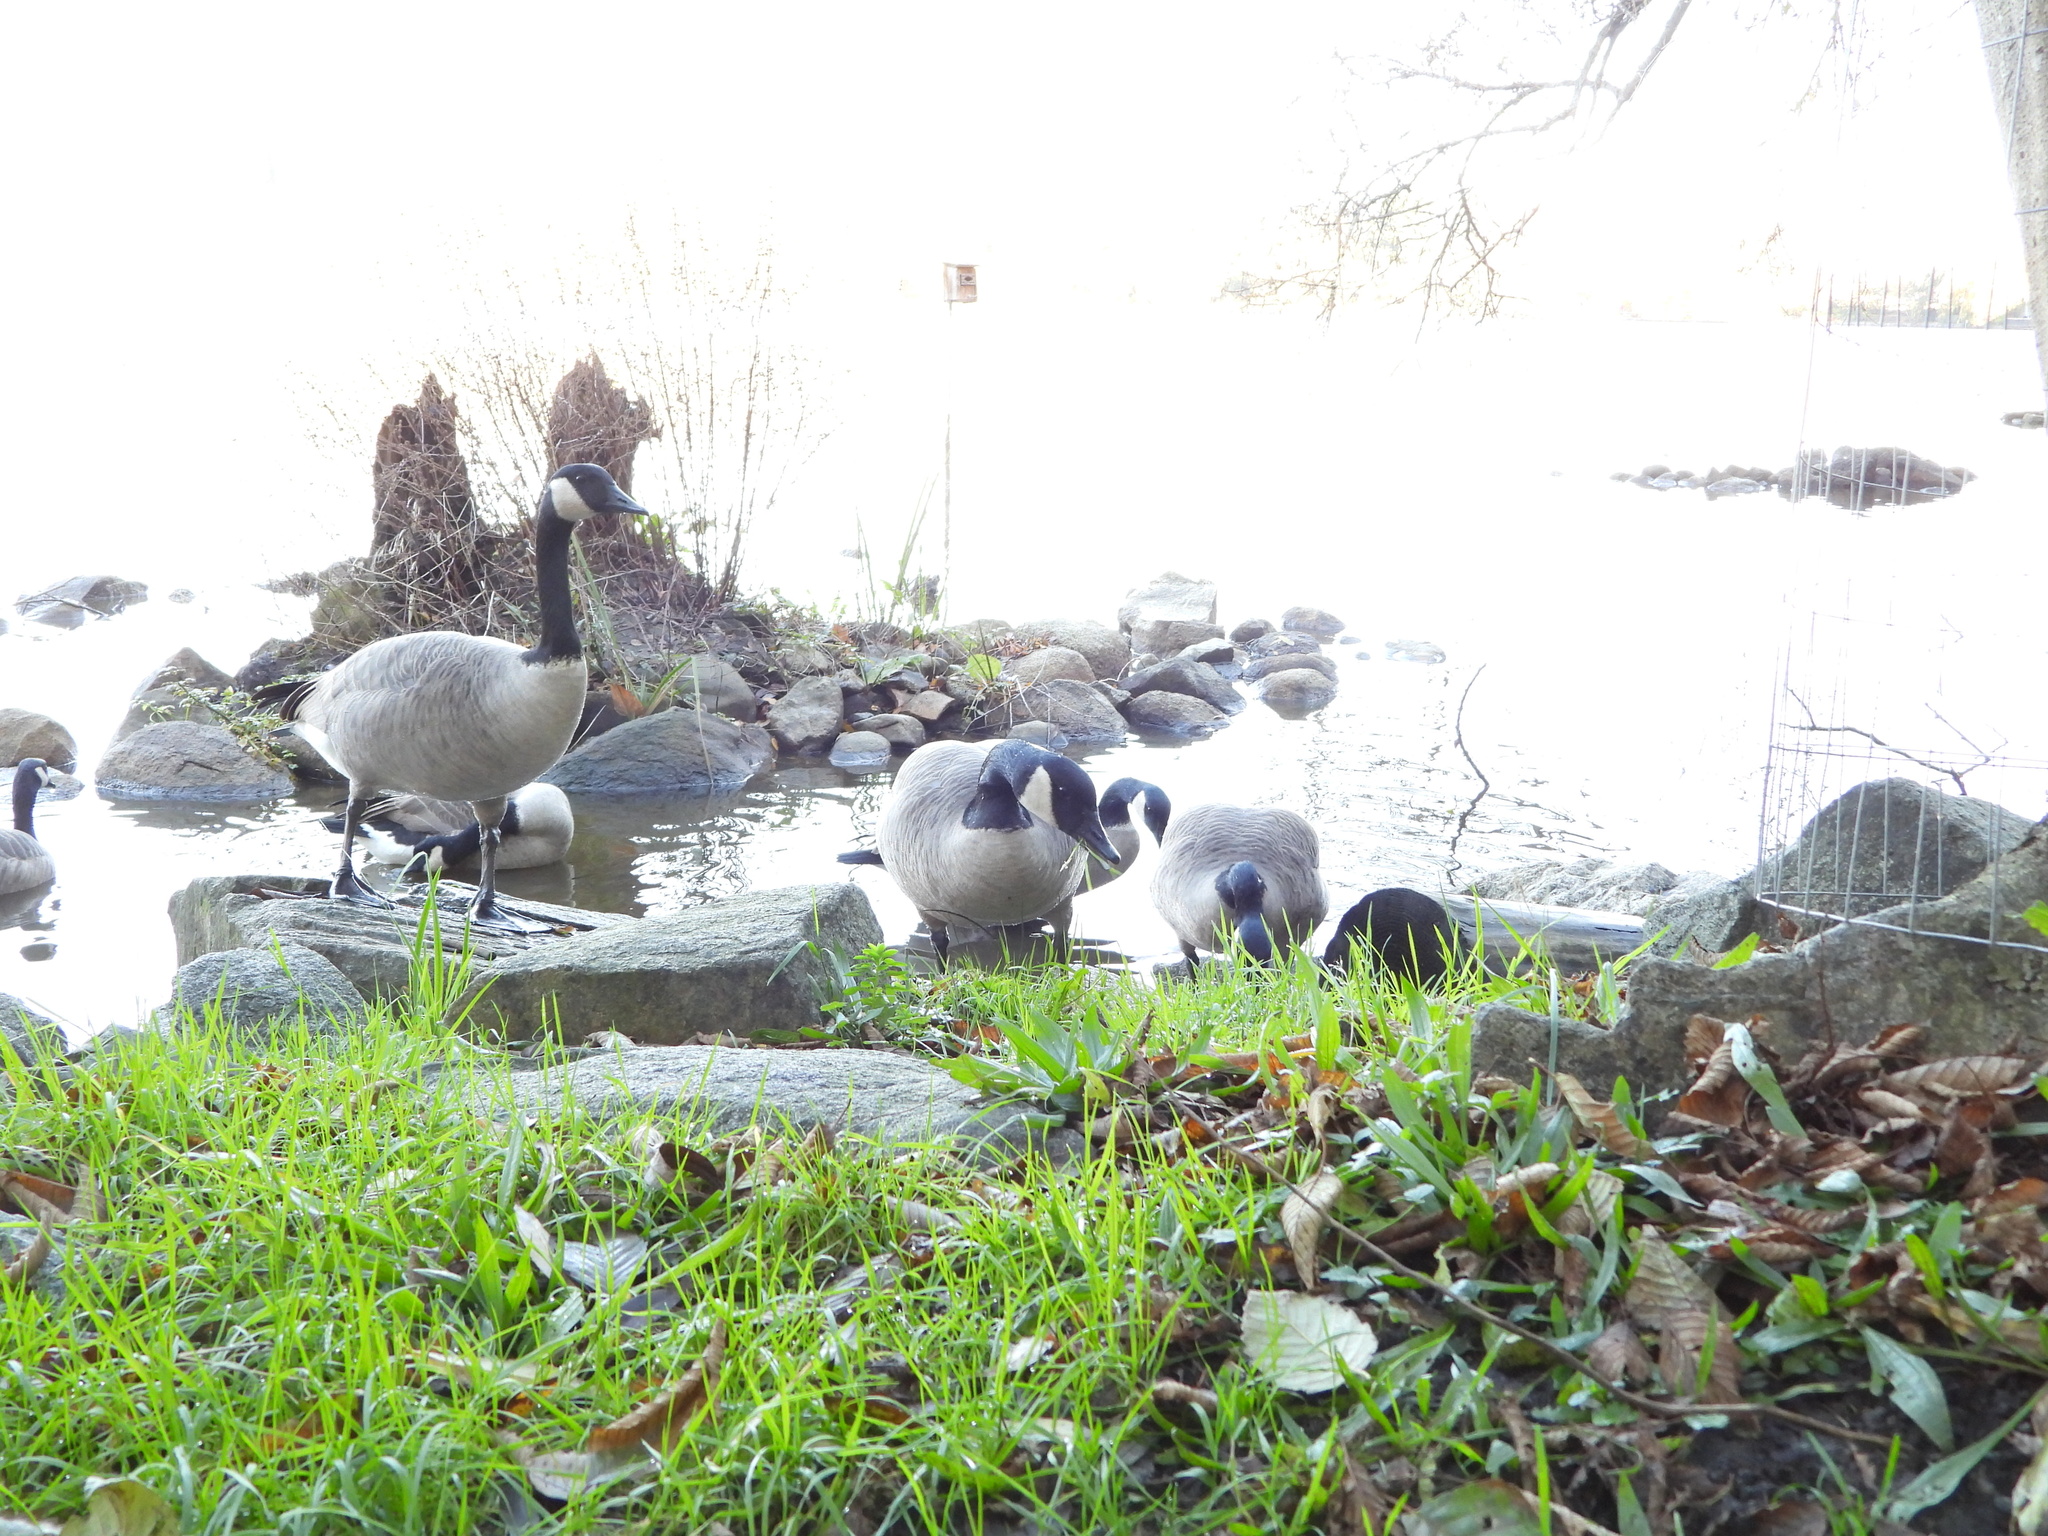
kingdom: Animalia
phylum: Chordata
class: Aves
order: Anseriformes
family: Anatidae
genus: Branta
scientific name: Branta canadensis
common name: Canada goose
